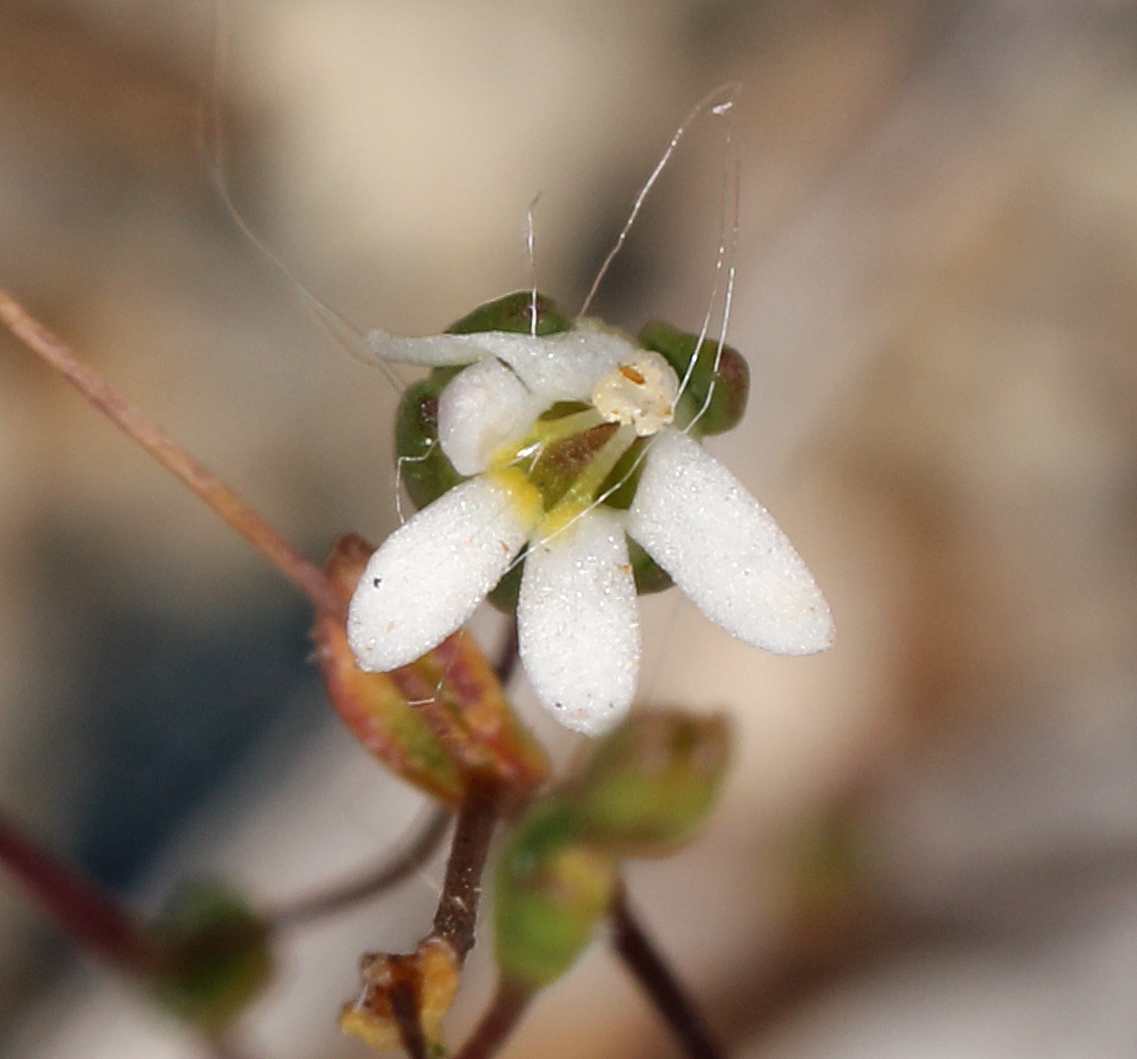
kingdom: Plantae
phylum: Tracheophyta
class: Magnoliopsida
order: Asterales
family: Campanulaceae
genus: Nemacladus
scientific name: Nemacladus sigmoideus
